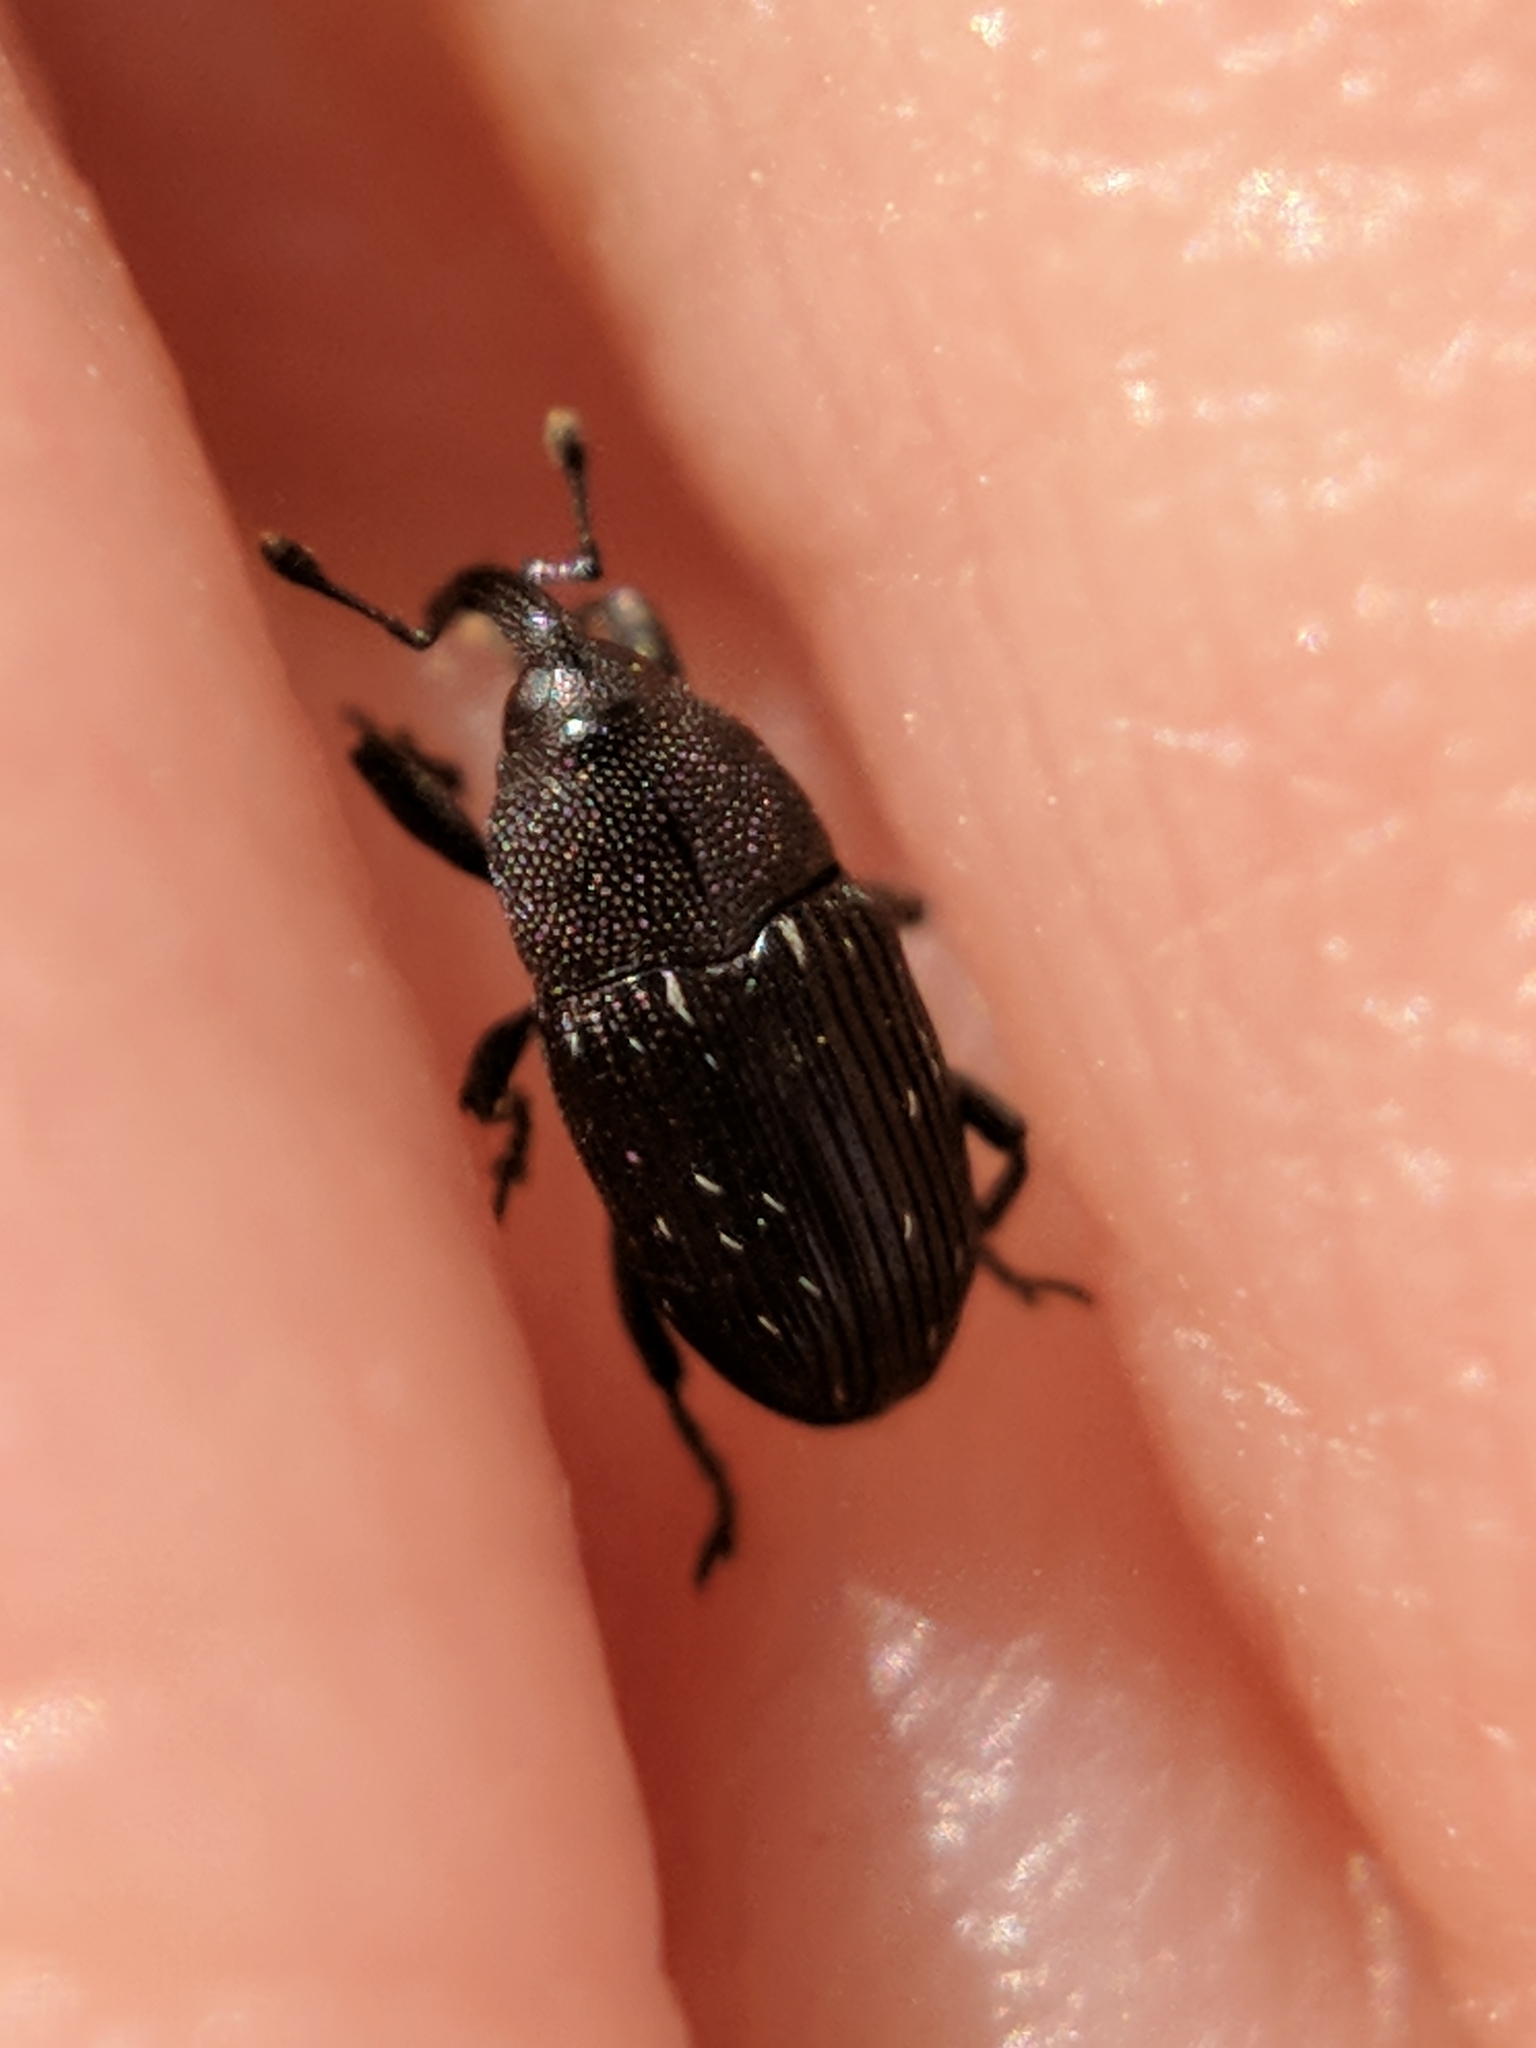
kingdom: Animalia
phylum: Arthropoda
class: Insecta
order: Coleoptera
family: Curculionidae
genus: Pseudobaris
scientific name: Pseudobaris nigrina
